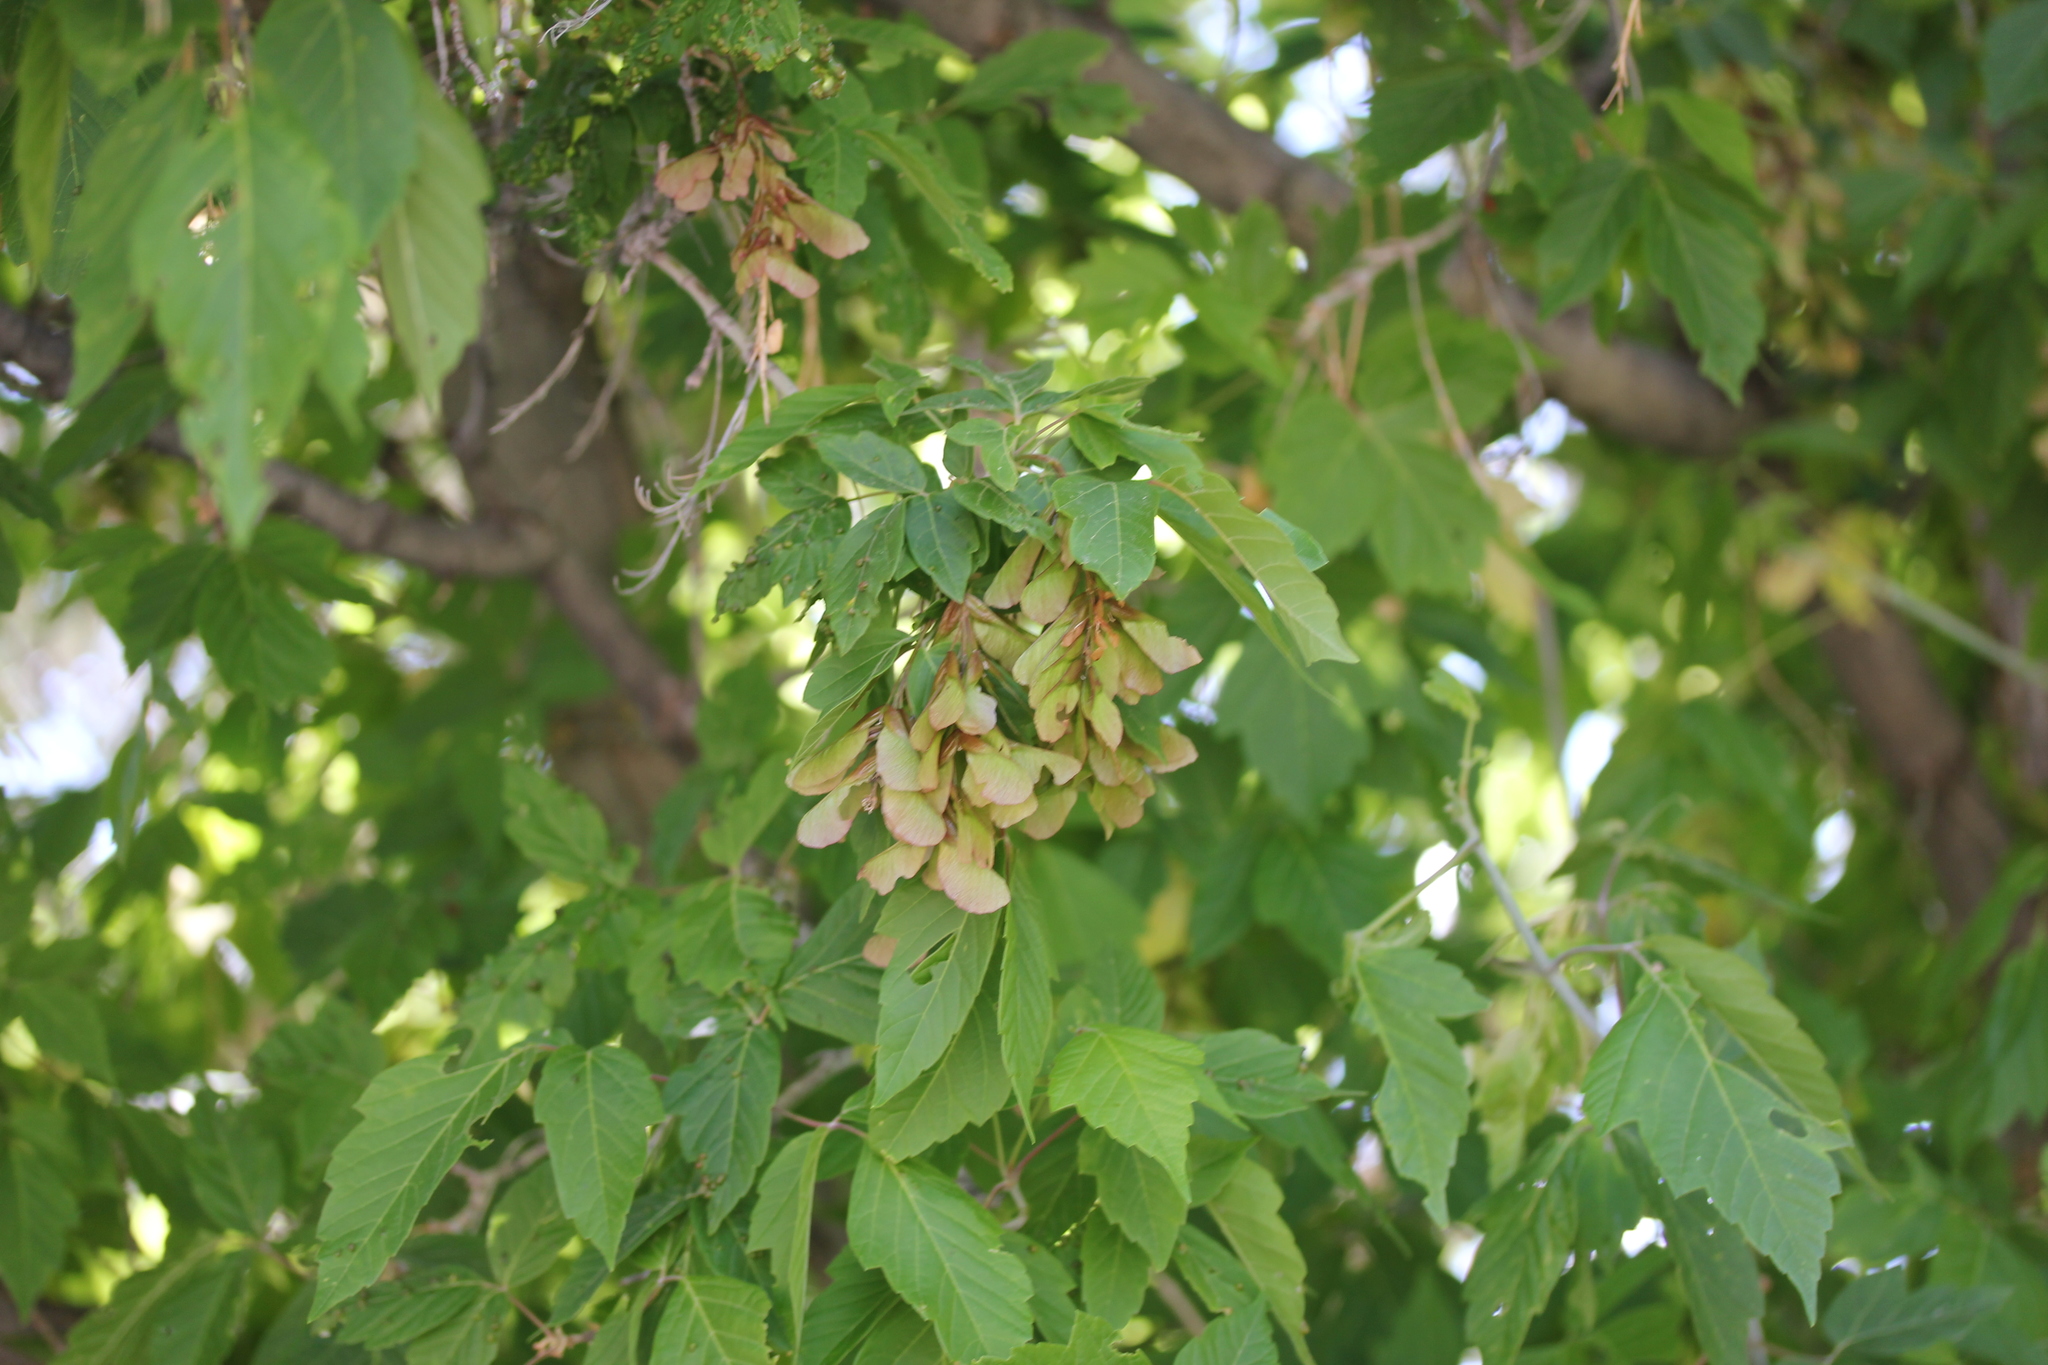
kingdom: Plantae
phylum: Tracheophyta
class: Magnoliopsida
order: Sapindales
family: Sapindaceae
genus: Acer
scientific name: Acer negundo
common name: Ashleaf maple
